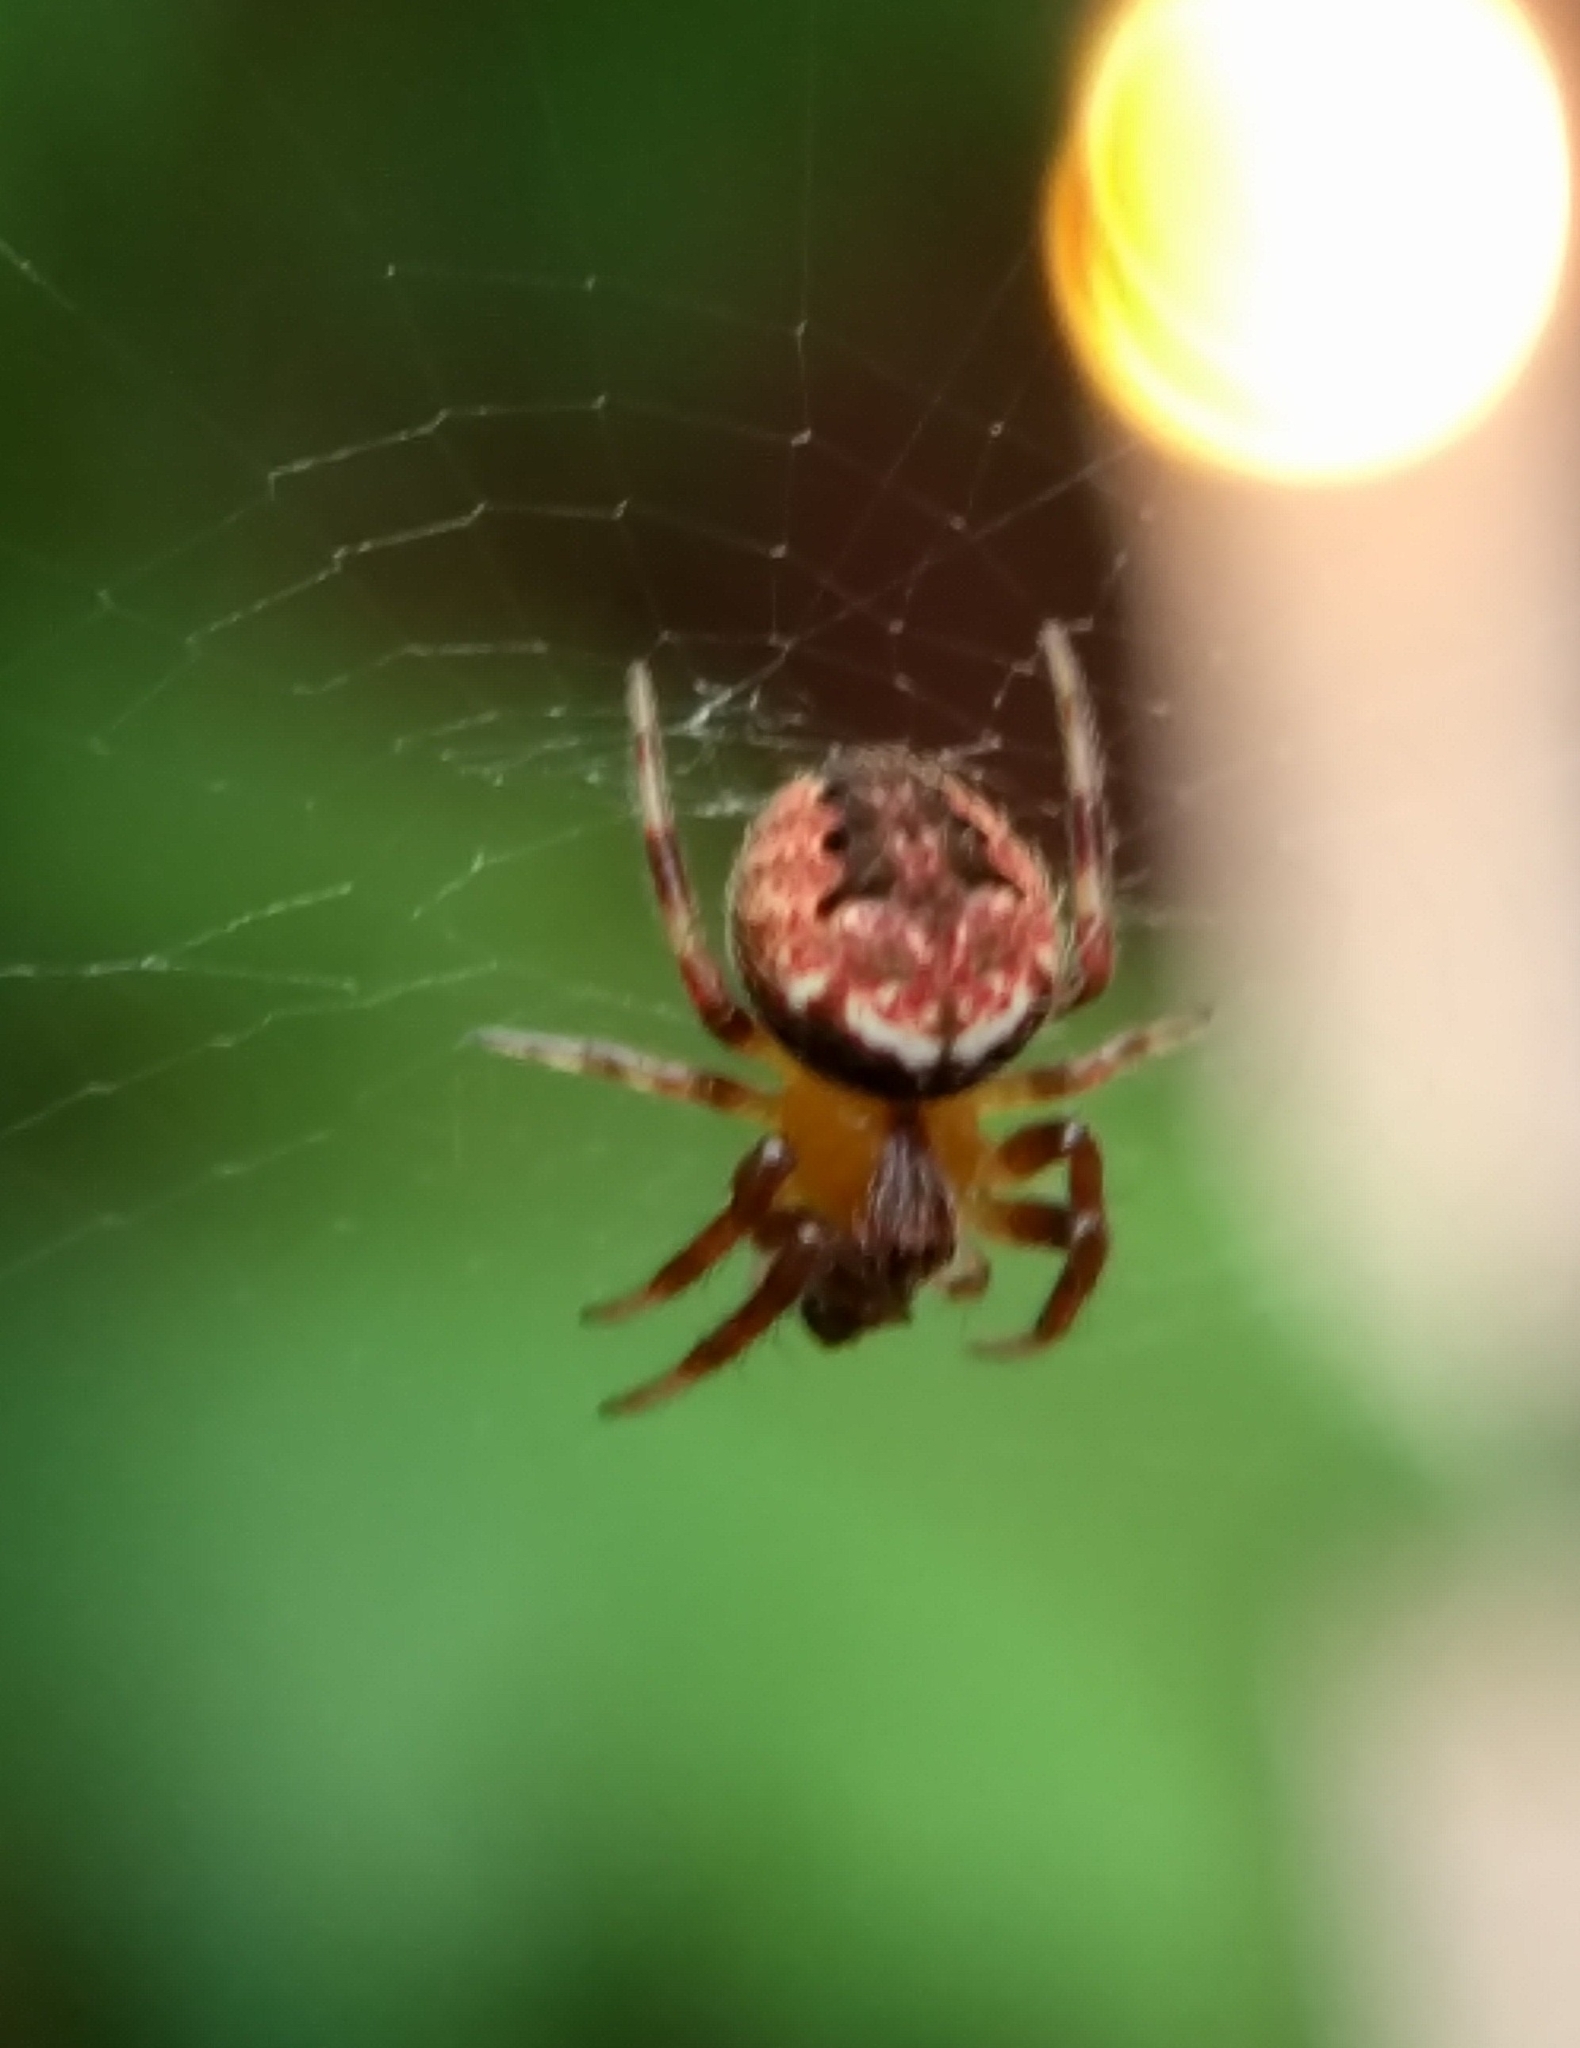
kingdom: Animalia
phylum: Arthropoda
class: Arachnida
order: Araneae
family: Araneidae
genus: Neoscona
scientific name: Neoscona arabesca
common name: Orb weavers
